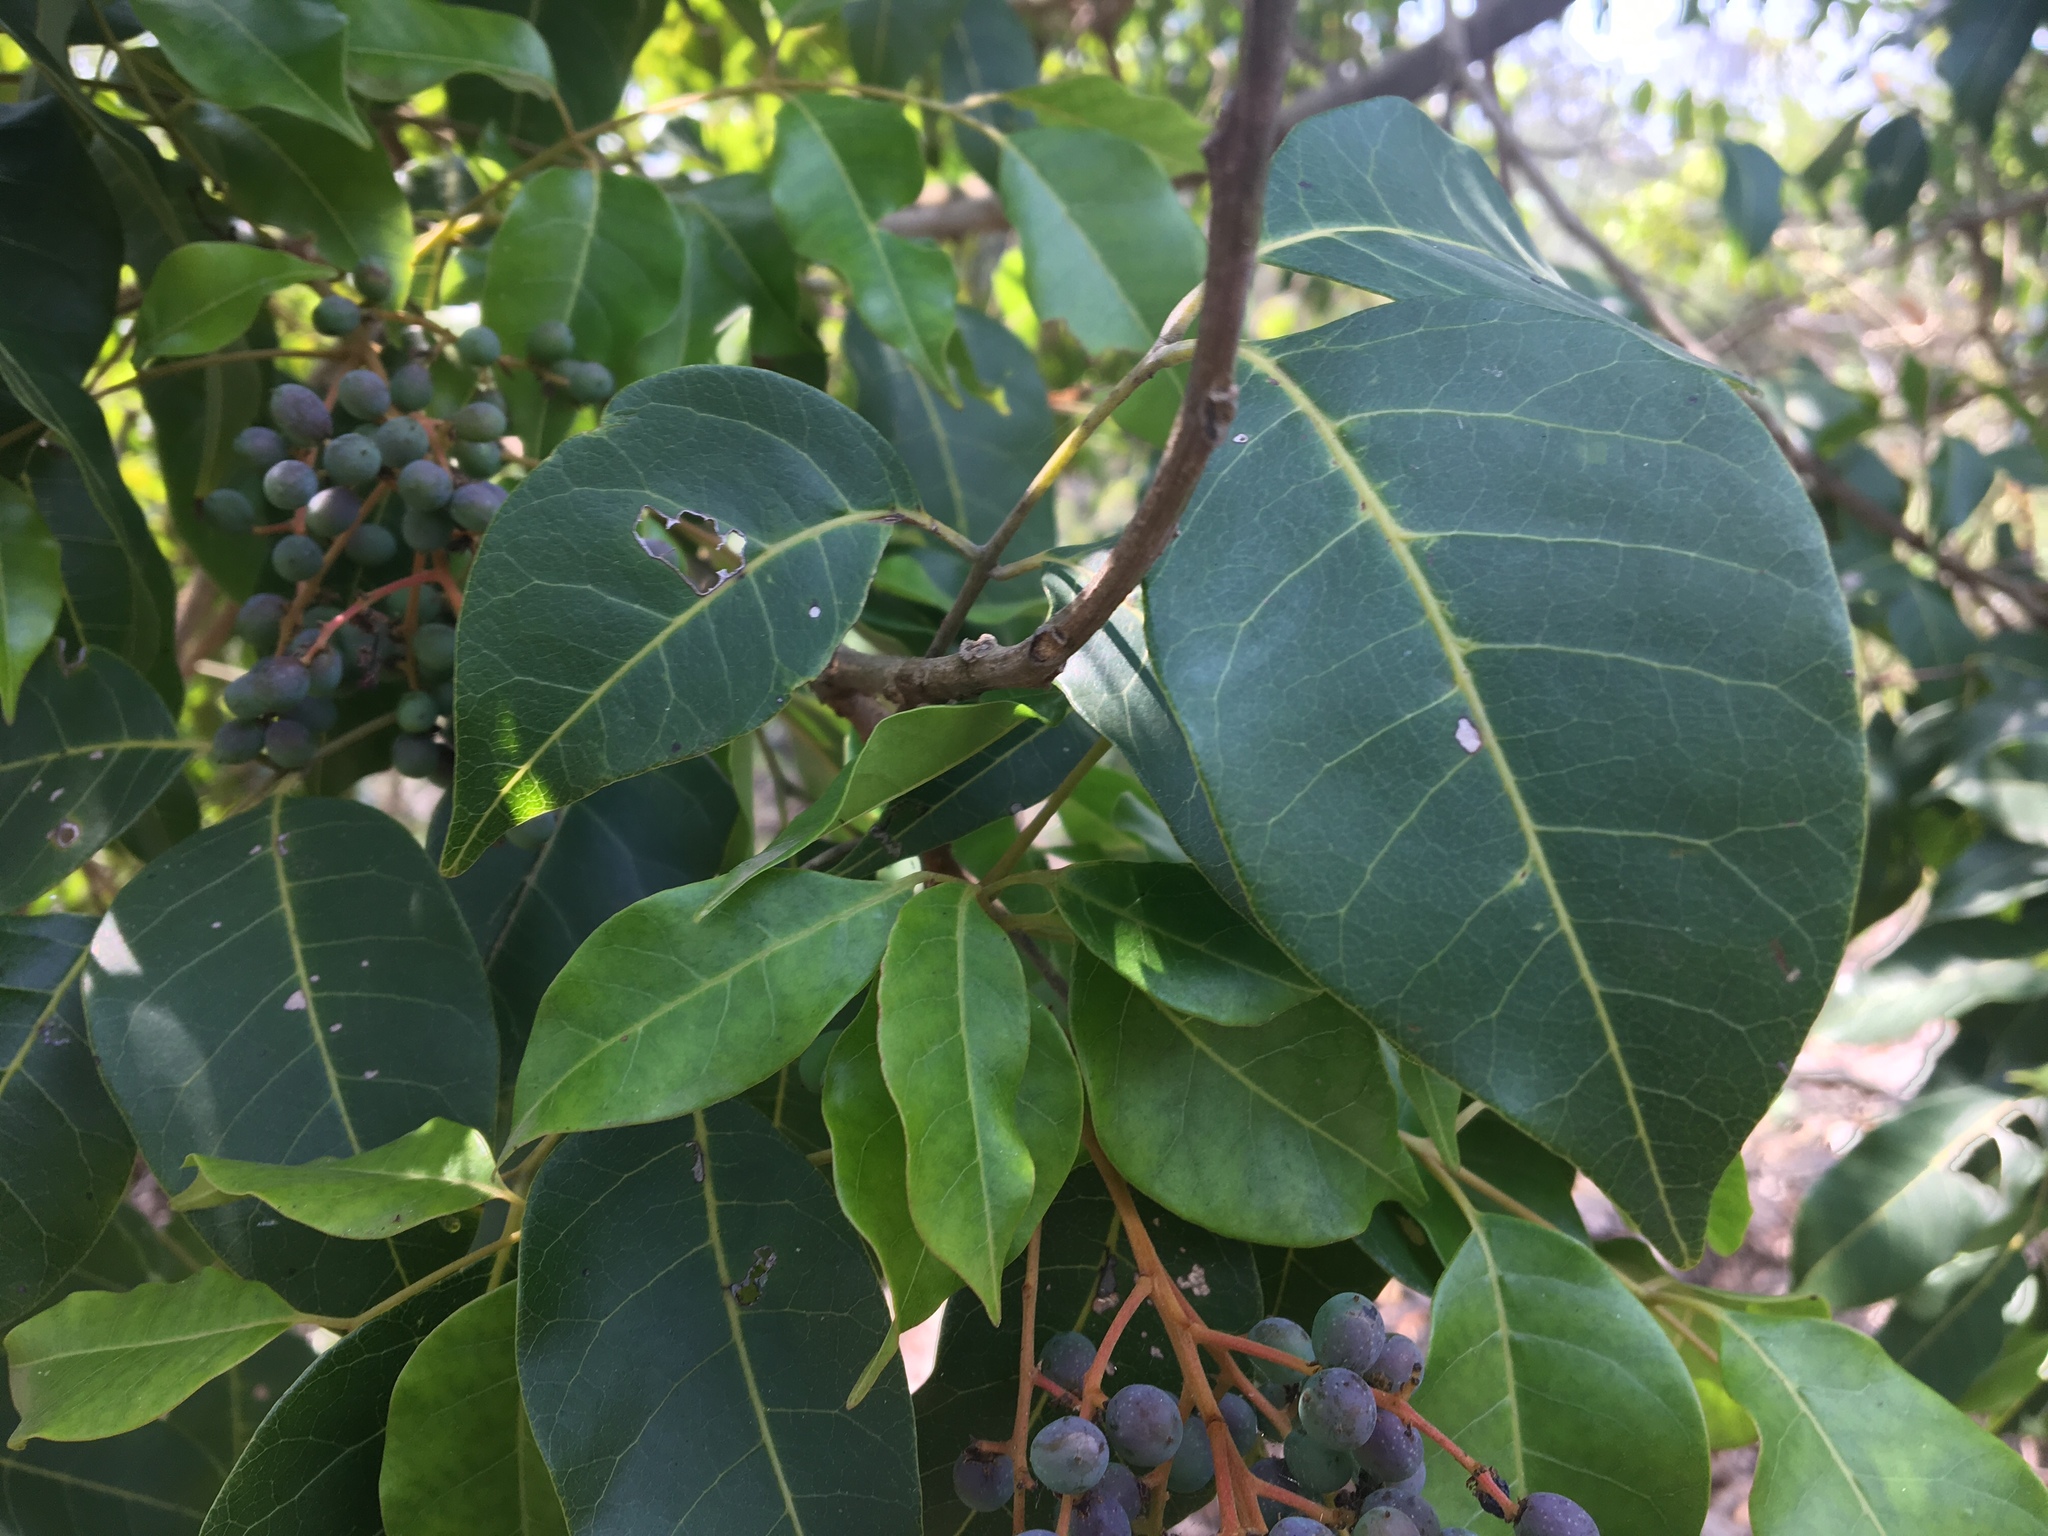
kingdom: Plantae
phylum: Tracheophyta
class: Magnoliopsida
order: Sapindales
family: Anacardiaceae
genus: Euroschinus
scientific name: Euroschinus falcatus
